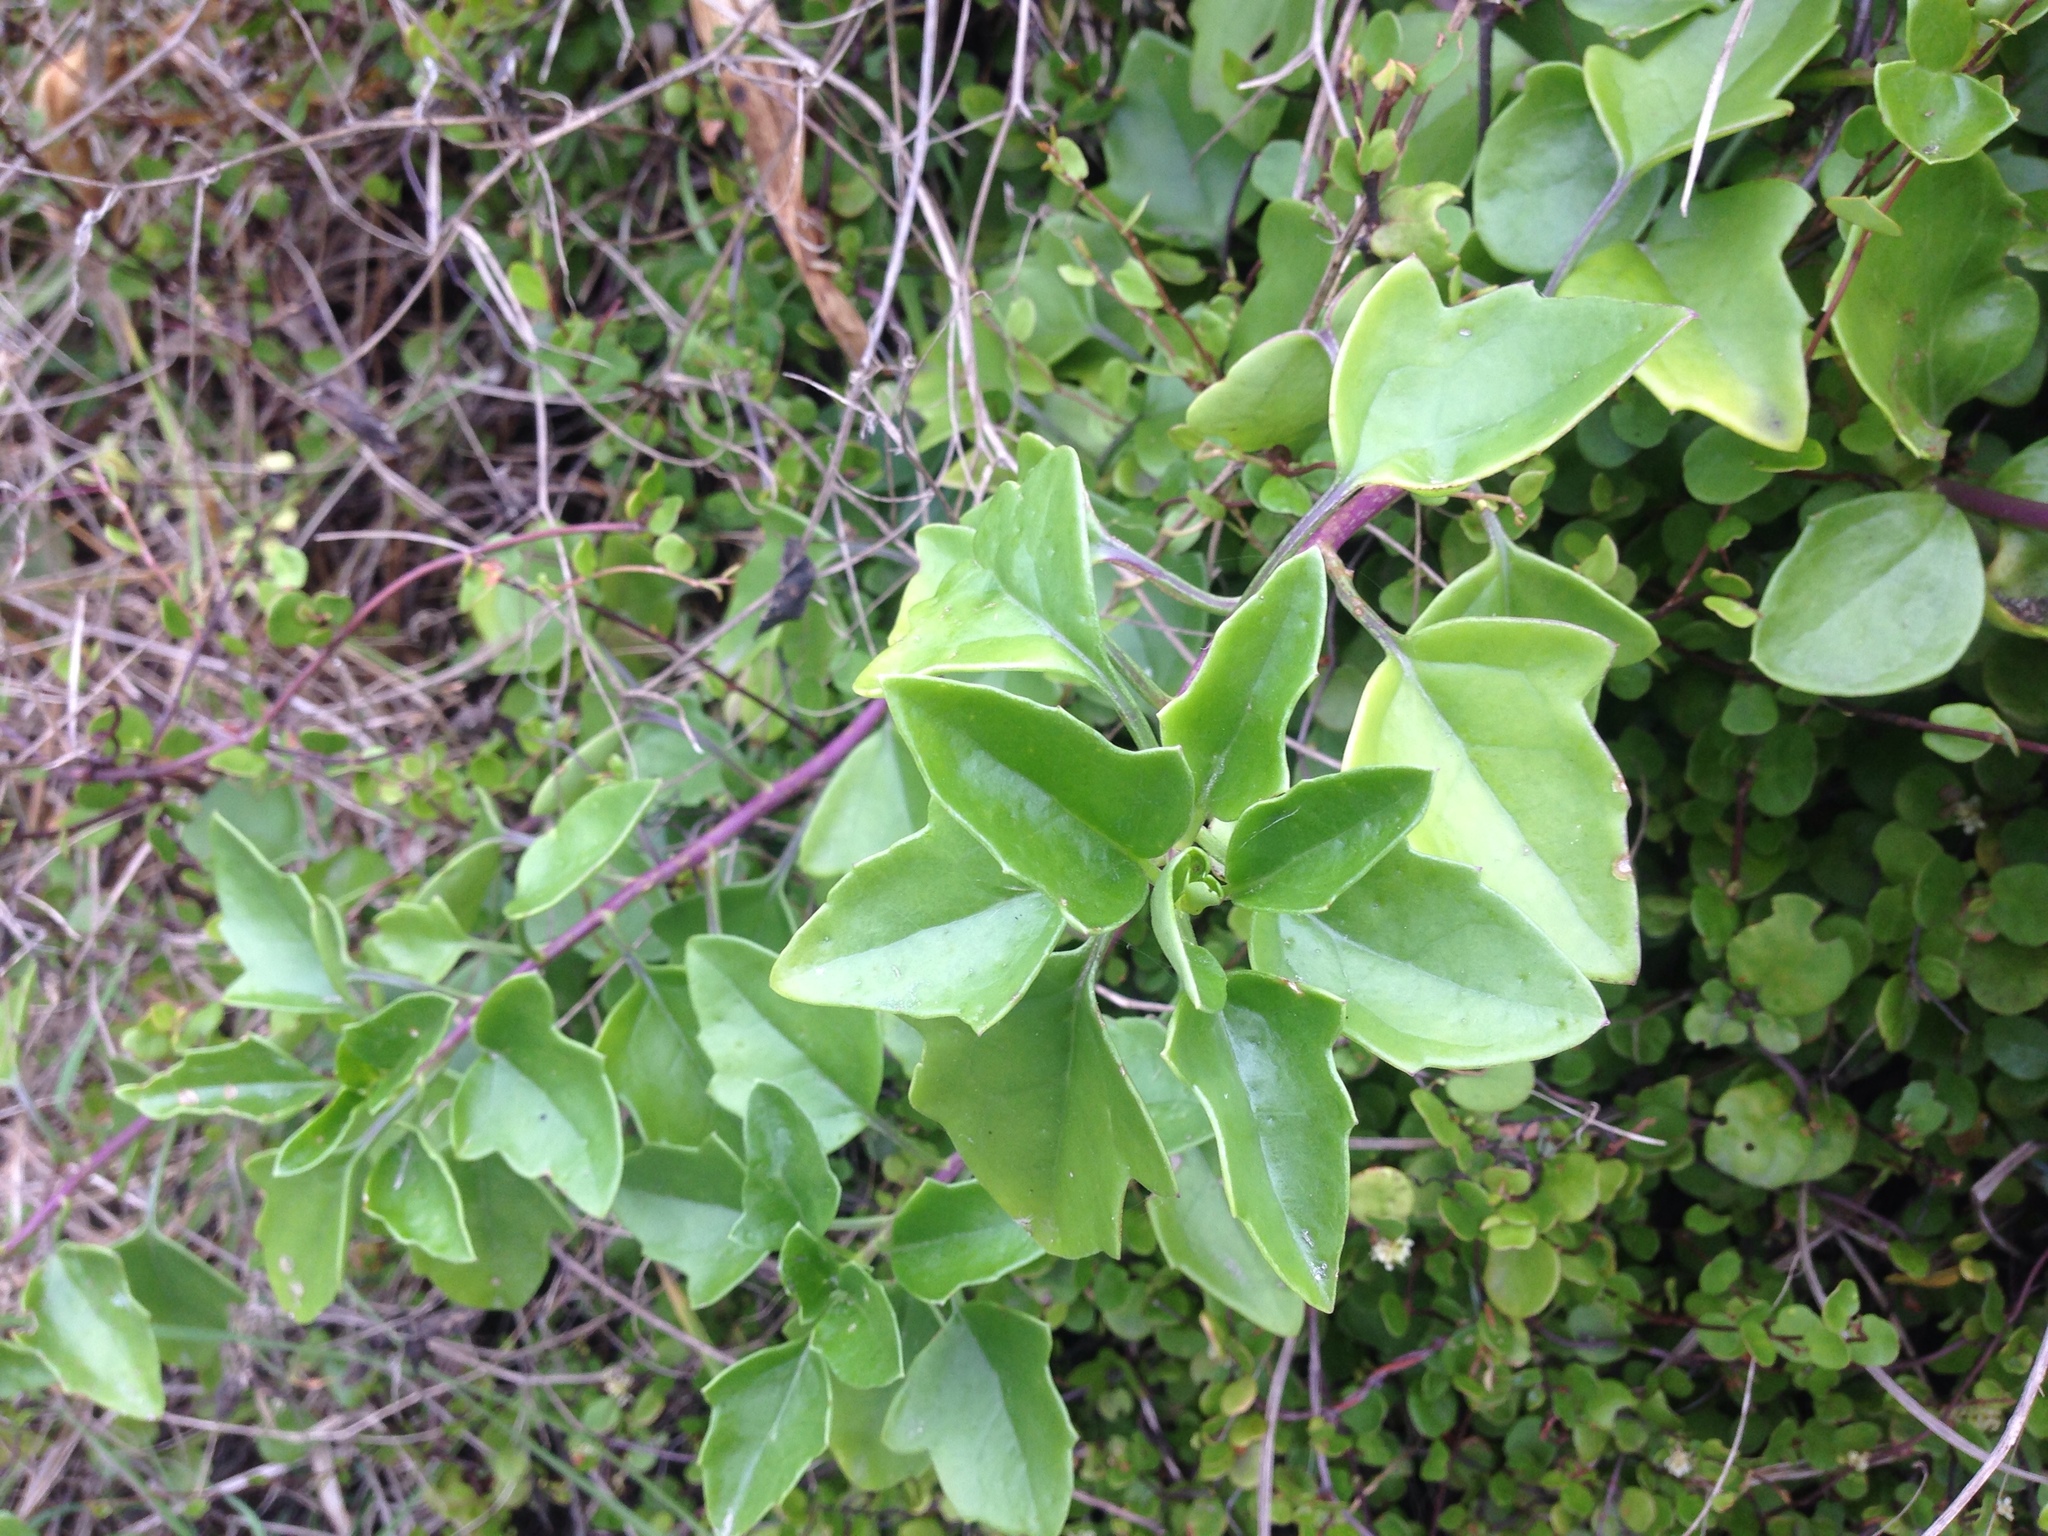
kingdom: Plantae
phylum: Tracheophyta
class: Magnoliopsida
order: Asterales
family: Asteraceae
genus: Senecio
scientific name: Senecio angulatus
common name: Climbing groundsel
